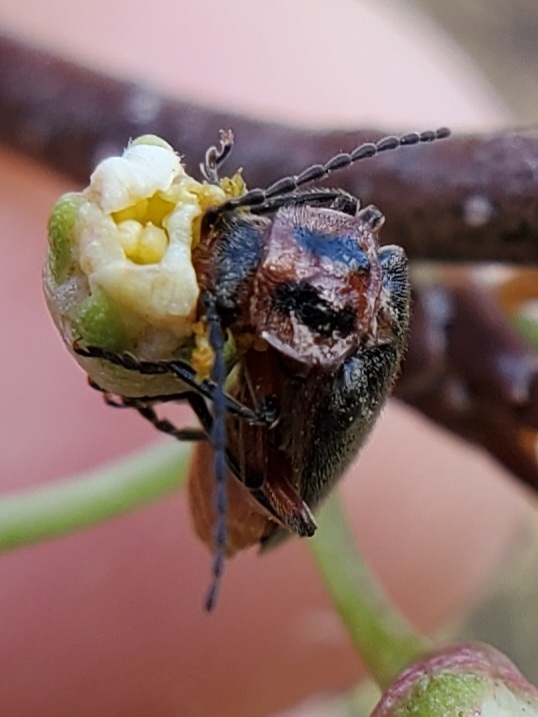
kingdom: Animalia
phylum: Arthropoda
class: Insecta
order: Coleoptera
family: Cantharidae
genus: Atalantycha
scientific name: Atalantycha bilineata
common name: Two-lined leatherwing
